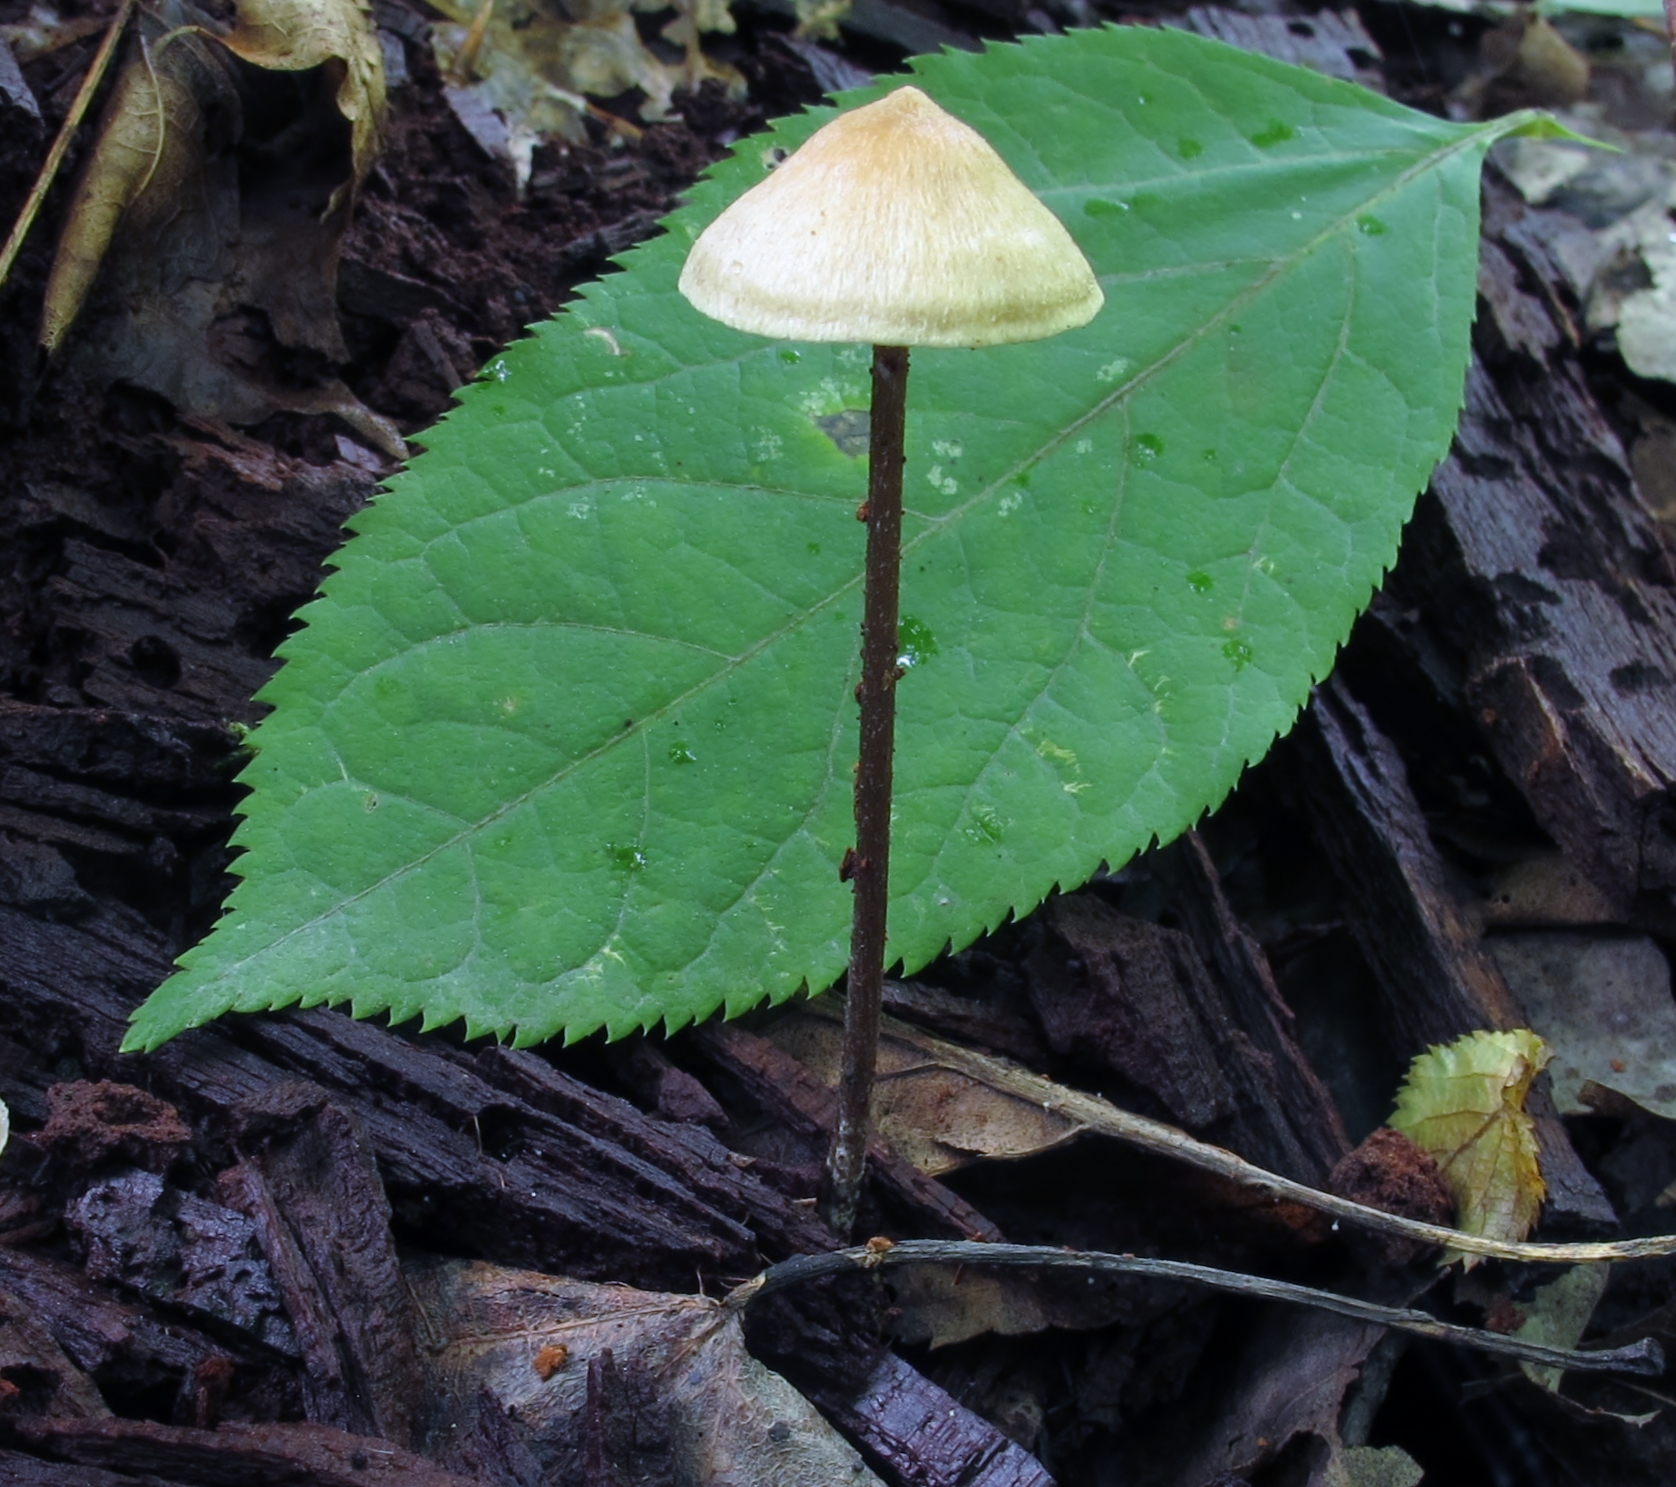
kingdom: Fungi
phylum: Basidiomycota
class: Agaricomycetes
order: Agaricales
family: Entolomataceae
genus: Entoloma
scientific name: Entoloma conicum
